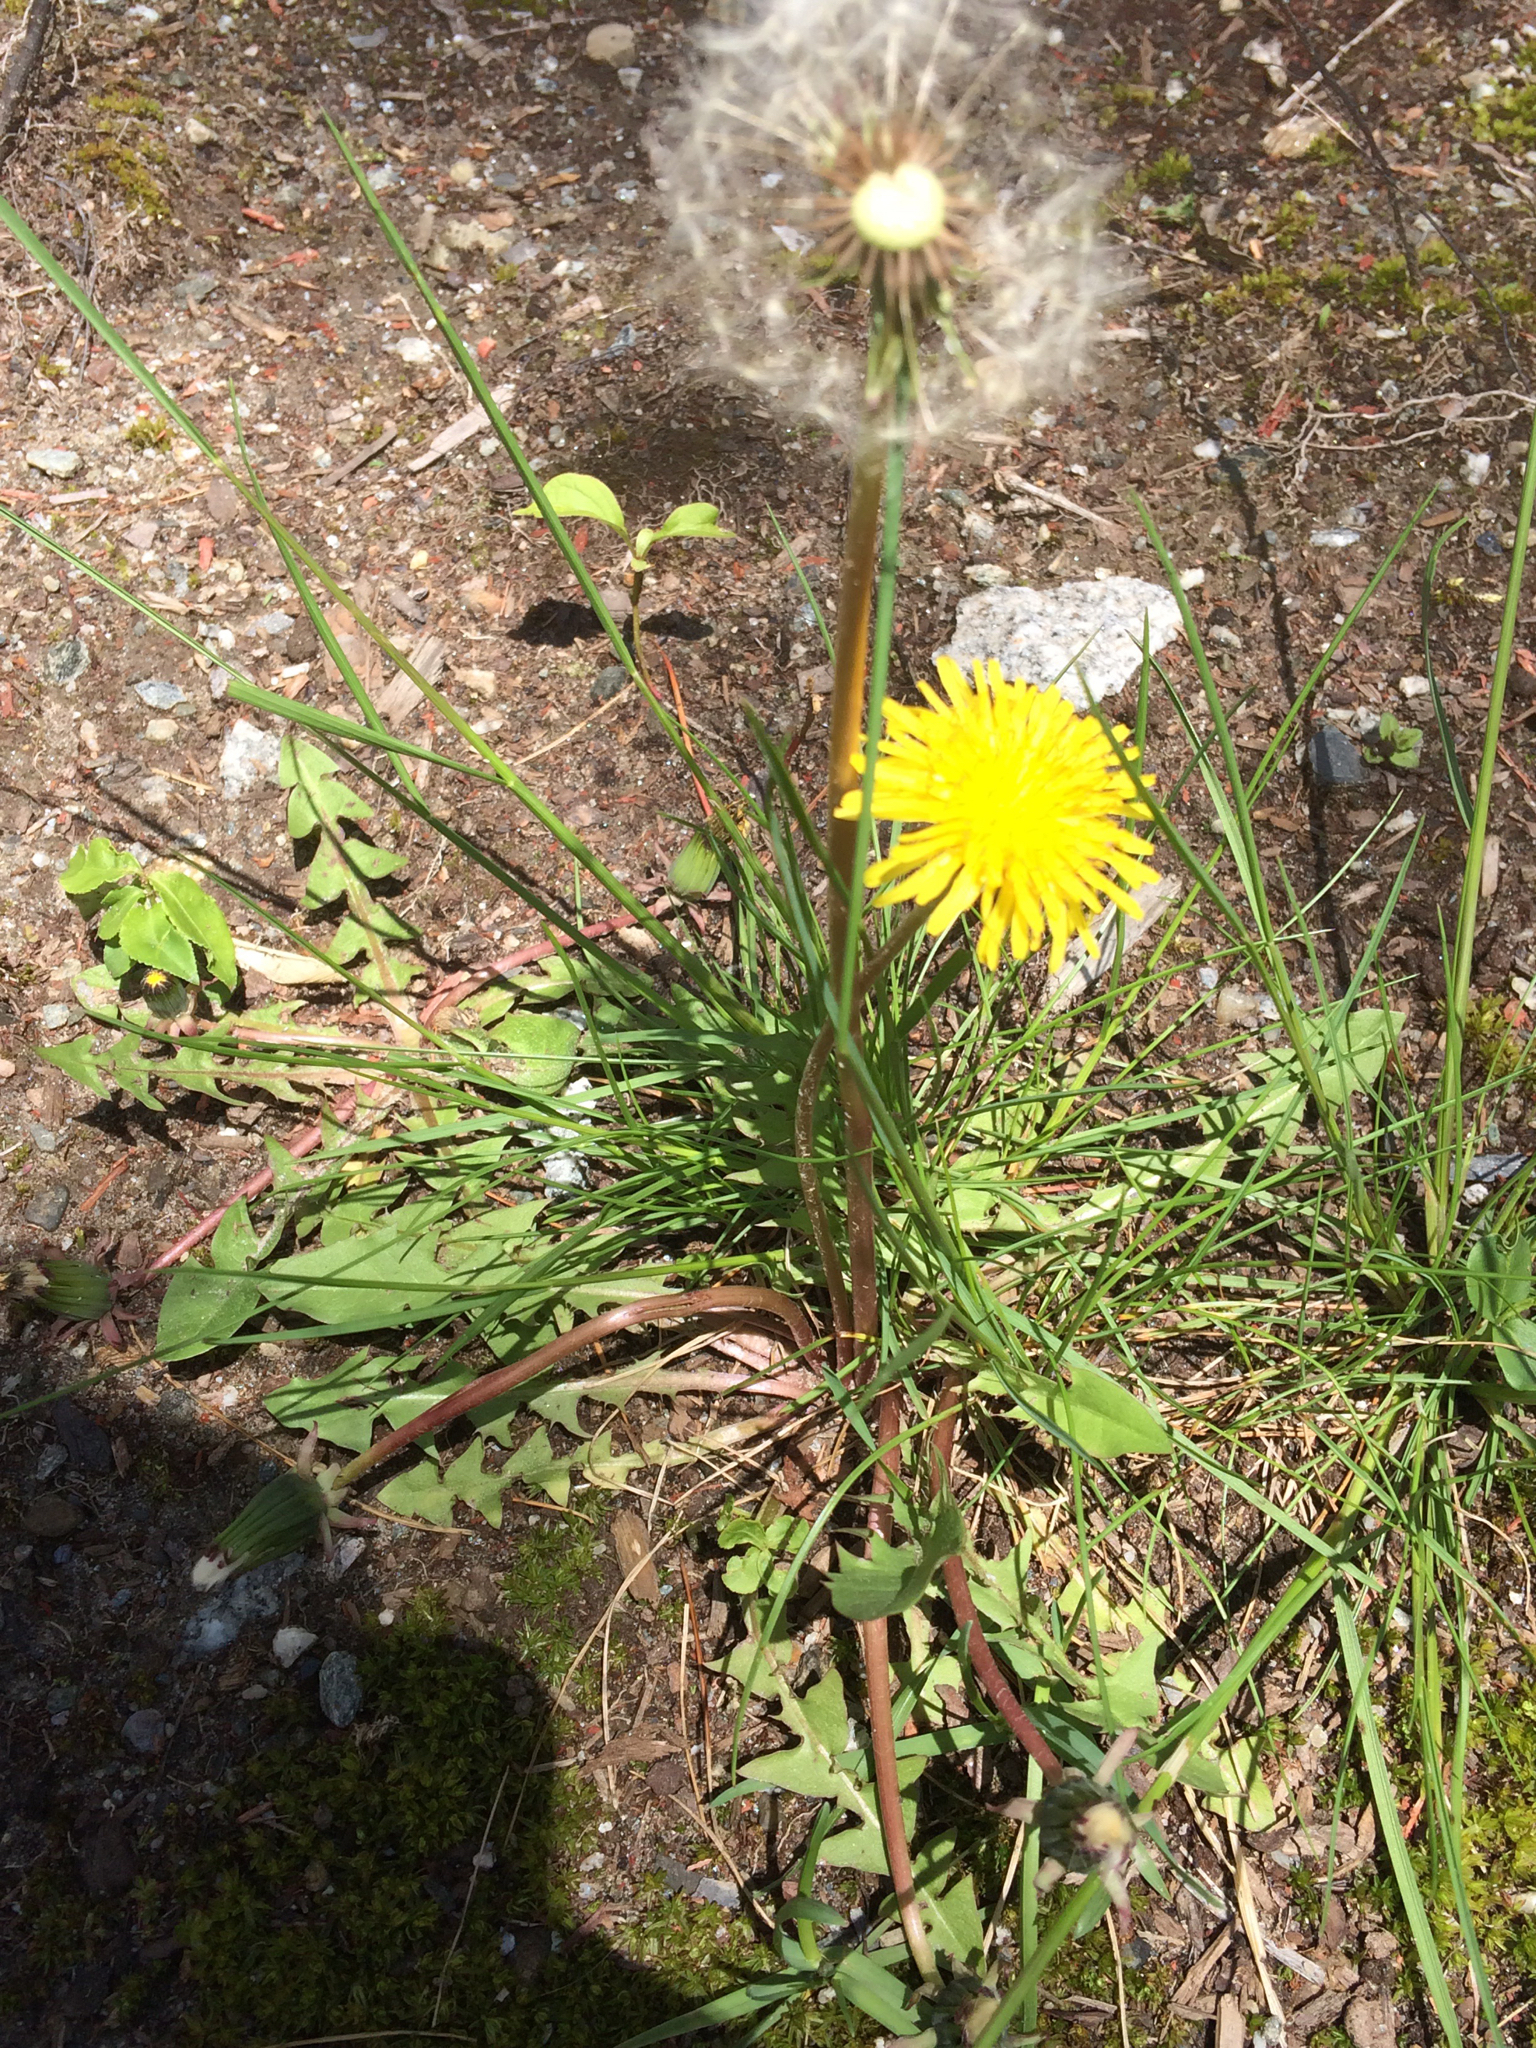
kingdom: Plantae
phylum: Tracheophyta
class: Magnoliopsida
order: Asterales
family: Asteraceae
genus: Taraxacum
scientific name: Taraxacum officinale
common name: Common dandelion
